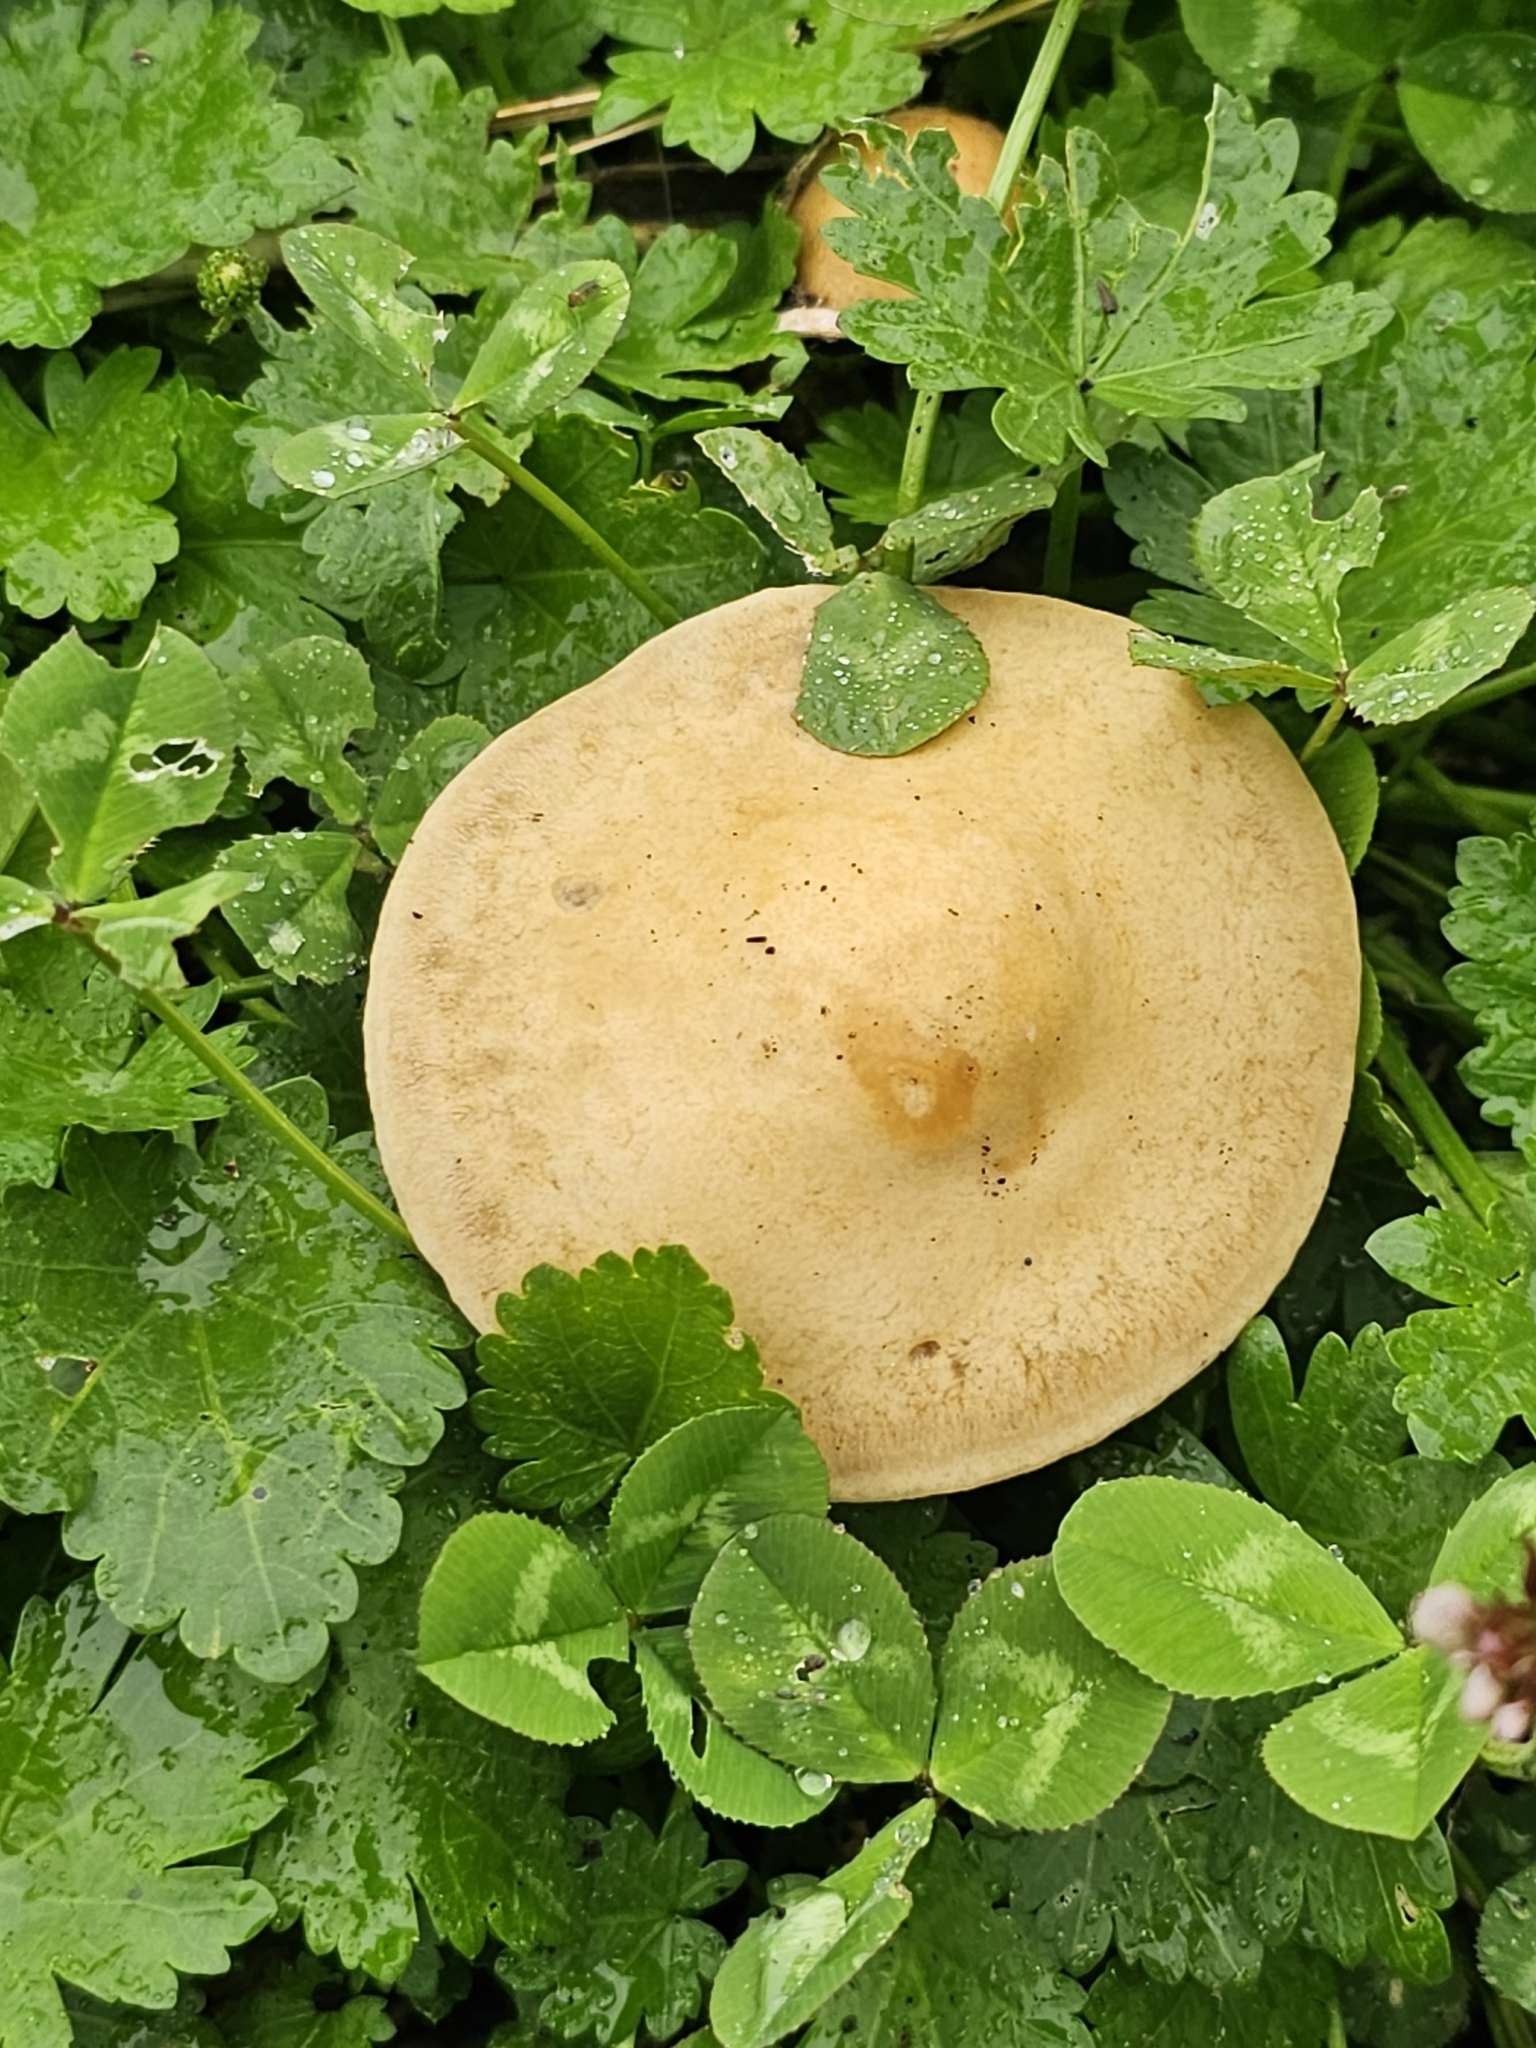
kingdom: Fungi
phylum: Basidiomycota
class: Agaricomycetes
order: Agaricales
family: Strophariaceae
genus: Agrocybe
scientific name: Agrocybe putaminum
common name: Mulch fieldcap
